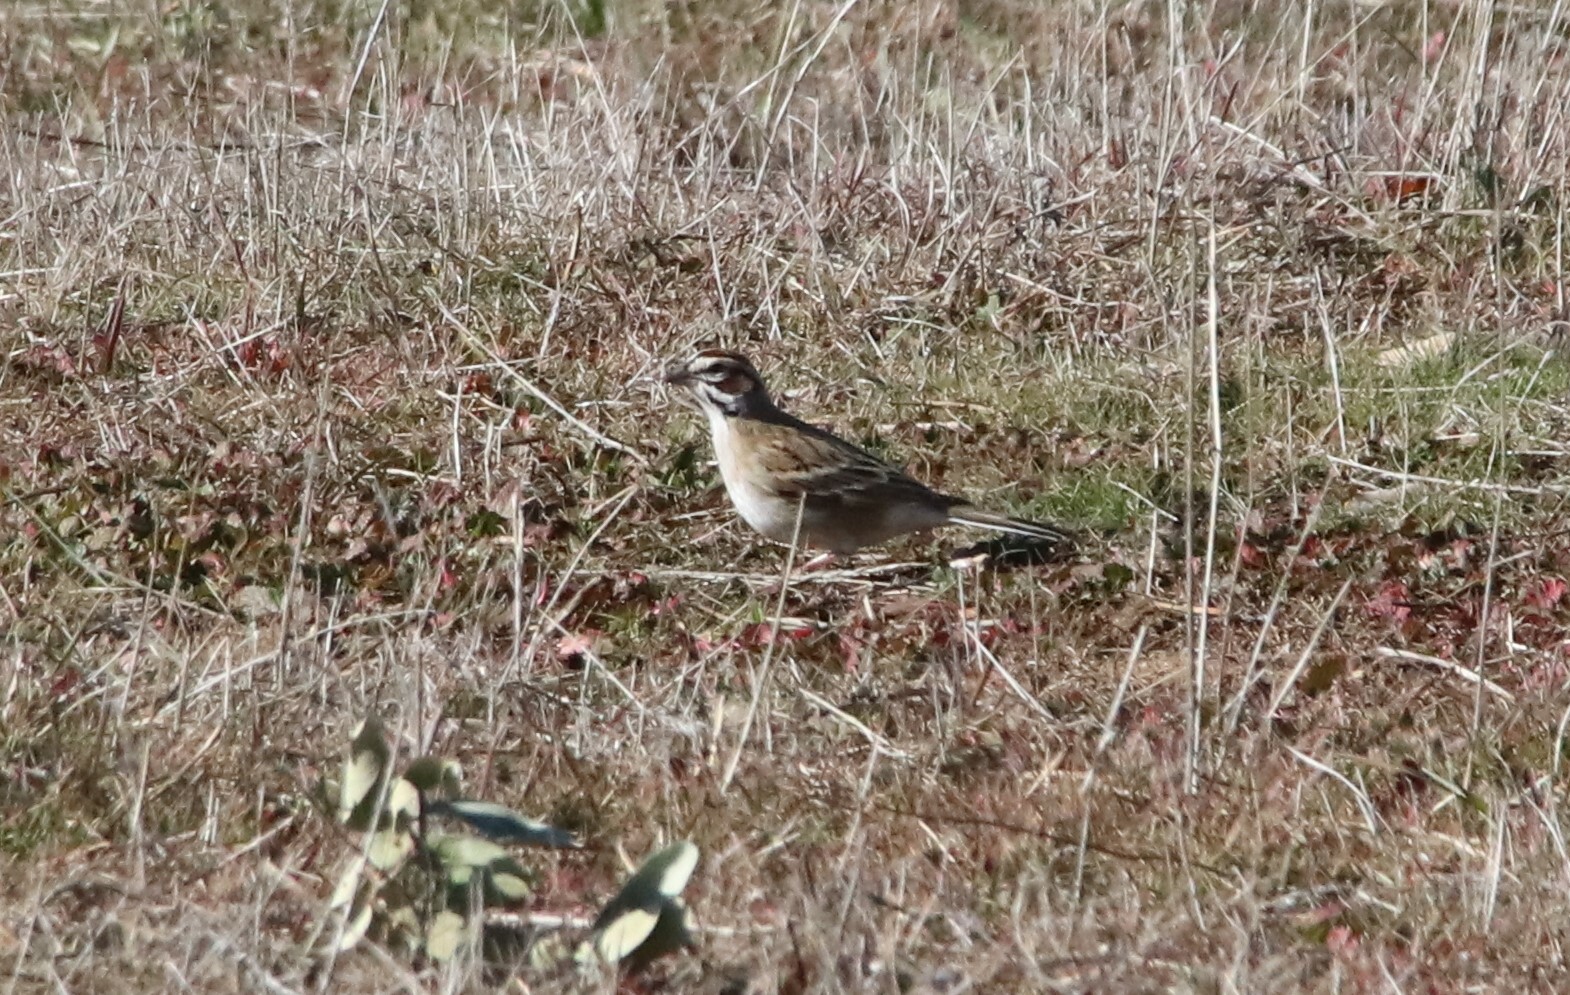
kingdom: Animalia
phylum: Chordata
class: Aves
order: Passeriformes
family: Passerellidae
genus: Chondestes
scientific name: Chondestes grammacus
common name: Lark sparrow
